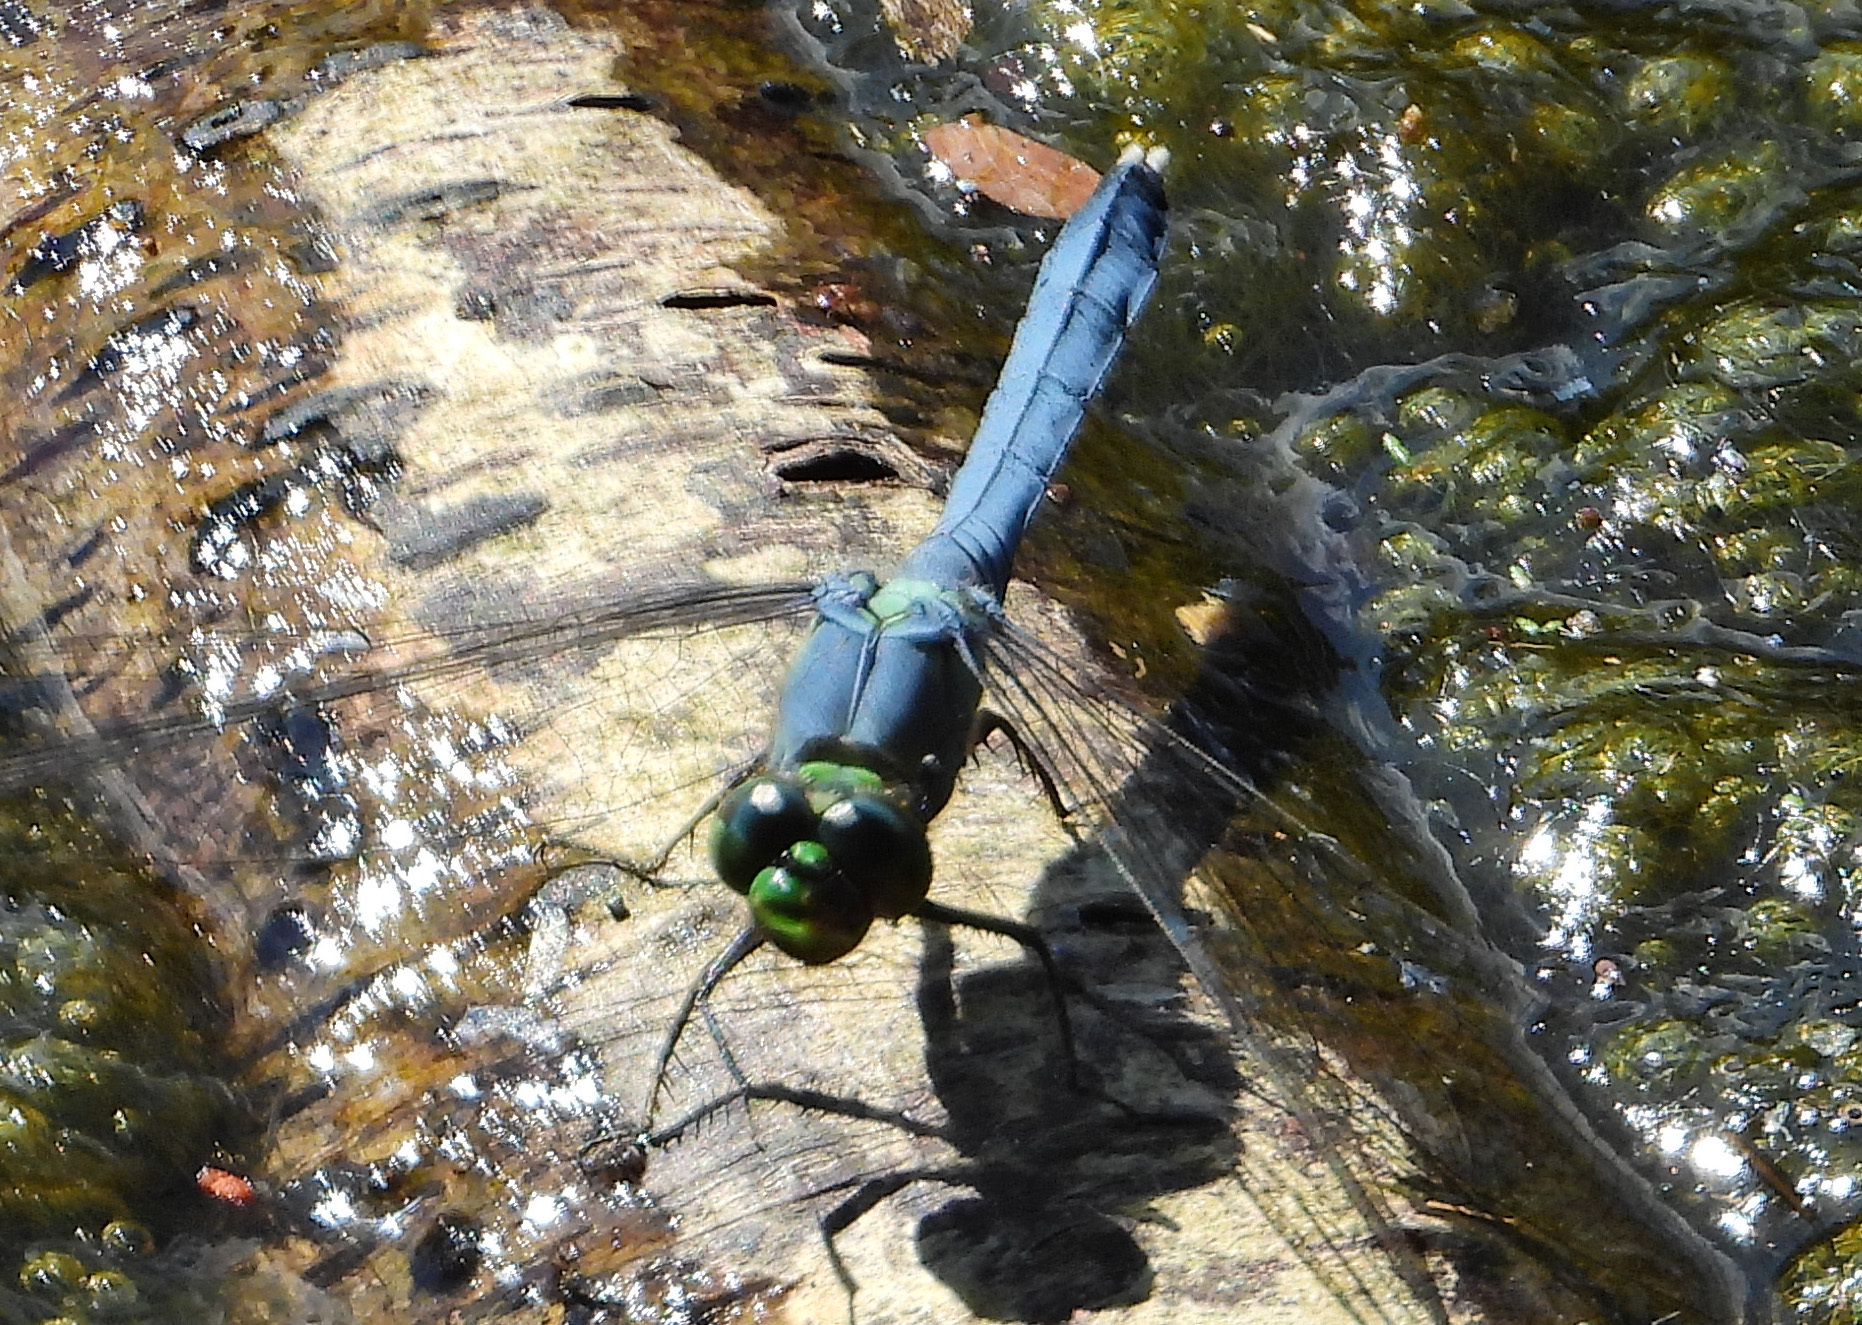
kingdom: Animalia
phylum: Arthropoda
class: Insecta
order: Odonata
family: Libellulidae
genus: Erythemis
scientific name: Erythemis simplicicollis
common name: Eastern pondhawk
